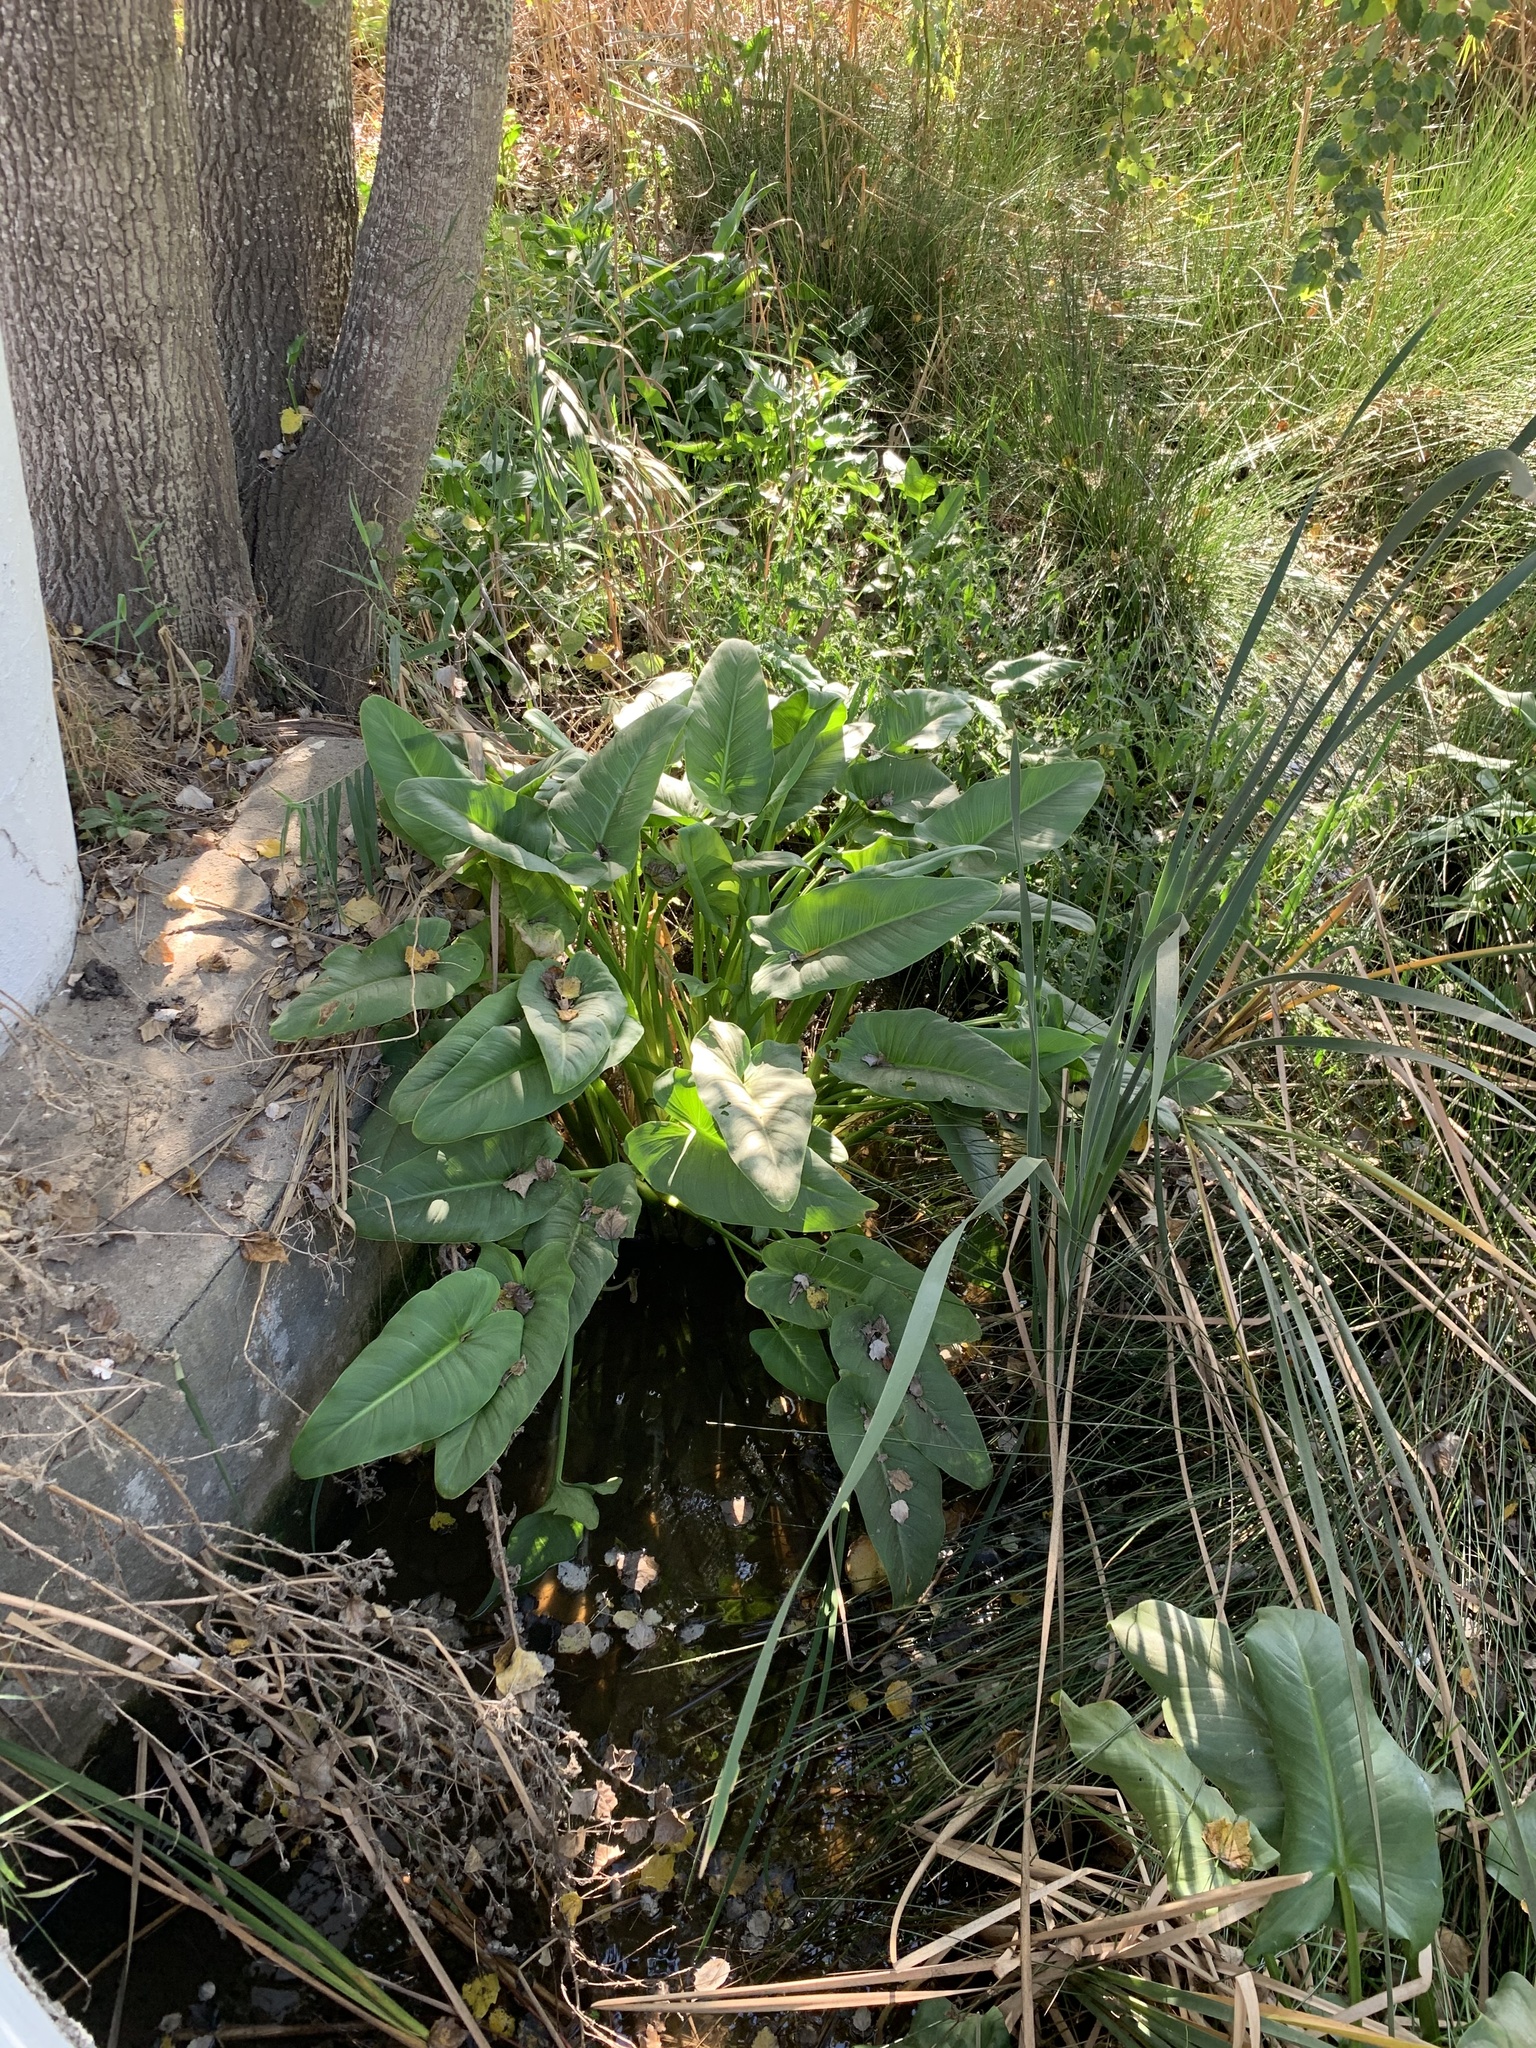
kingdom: Plantae
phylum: Tracheophyta
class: Liliopsida
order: Alismatales
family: Araceae
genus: Zantedeschia
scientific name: Zantedeschia aethiopica
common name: Altar-lily
